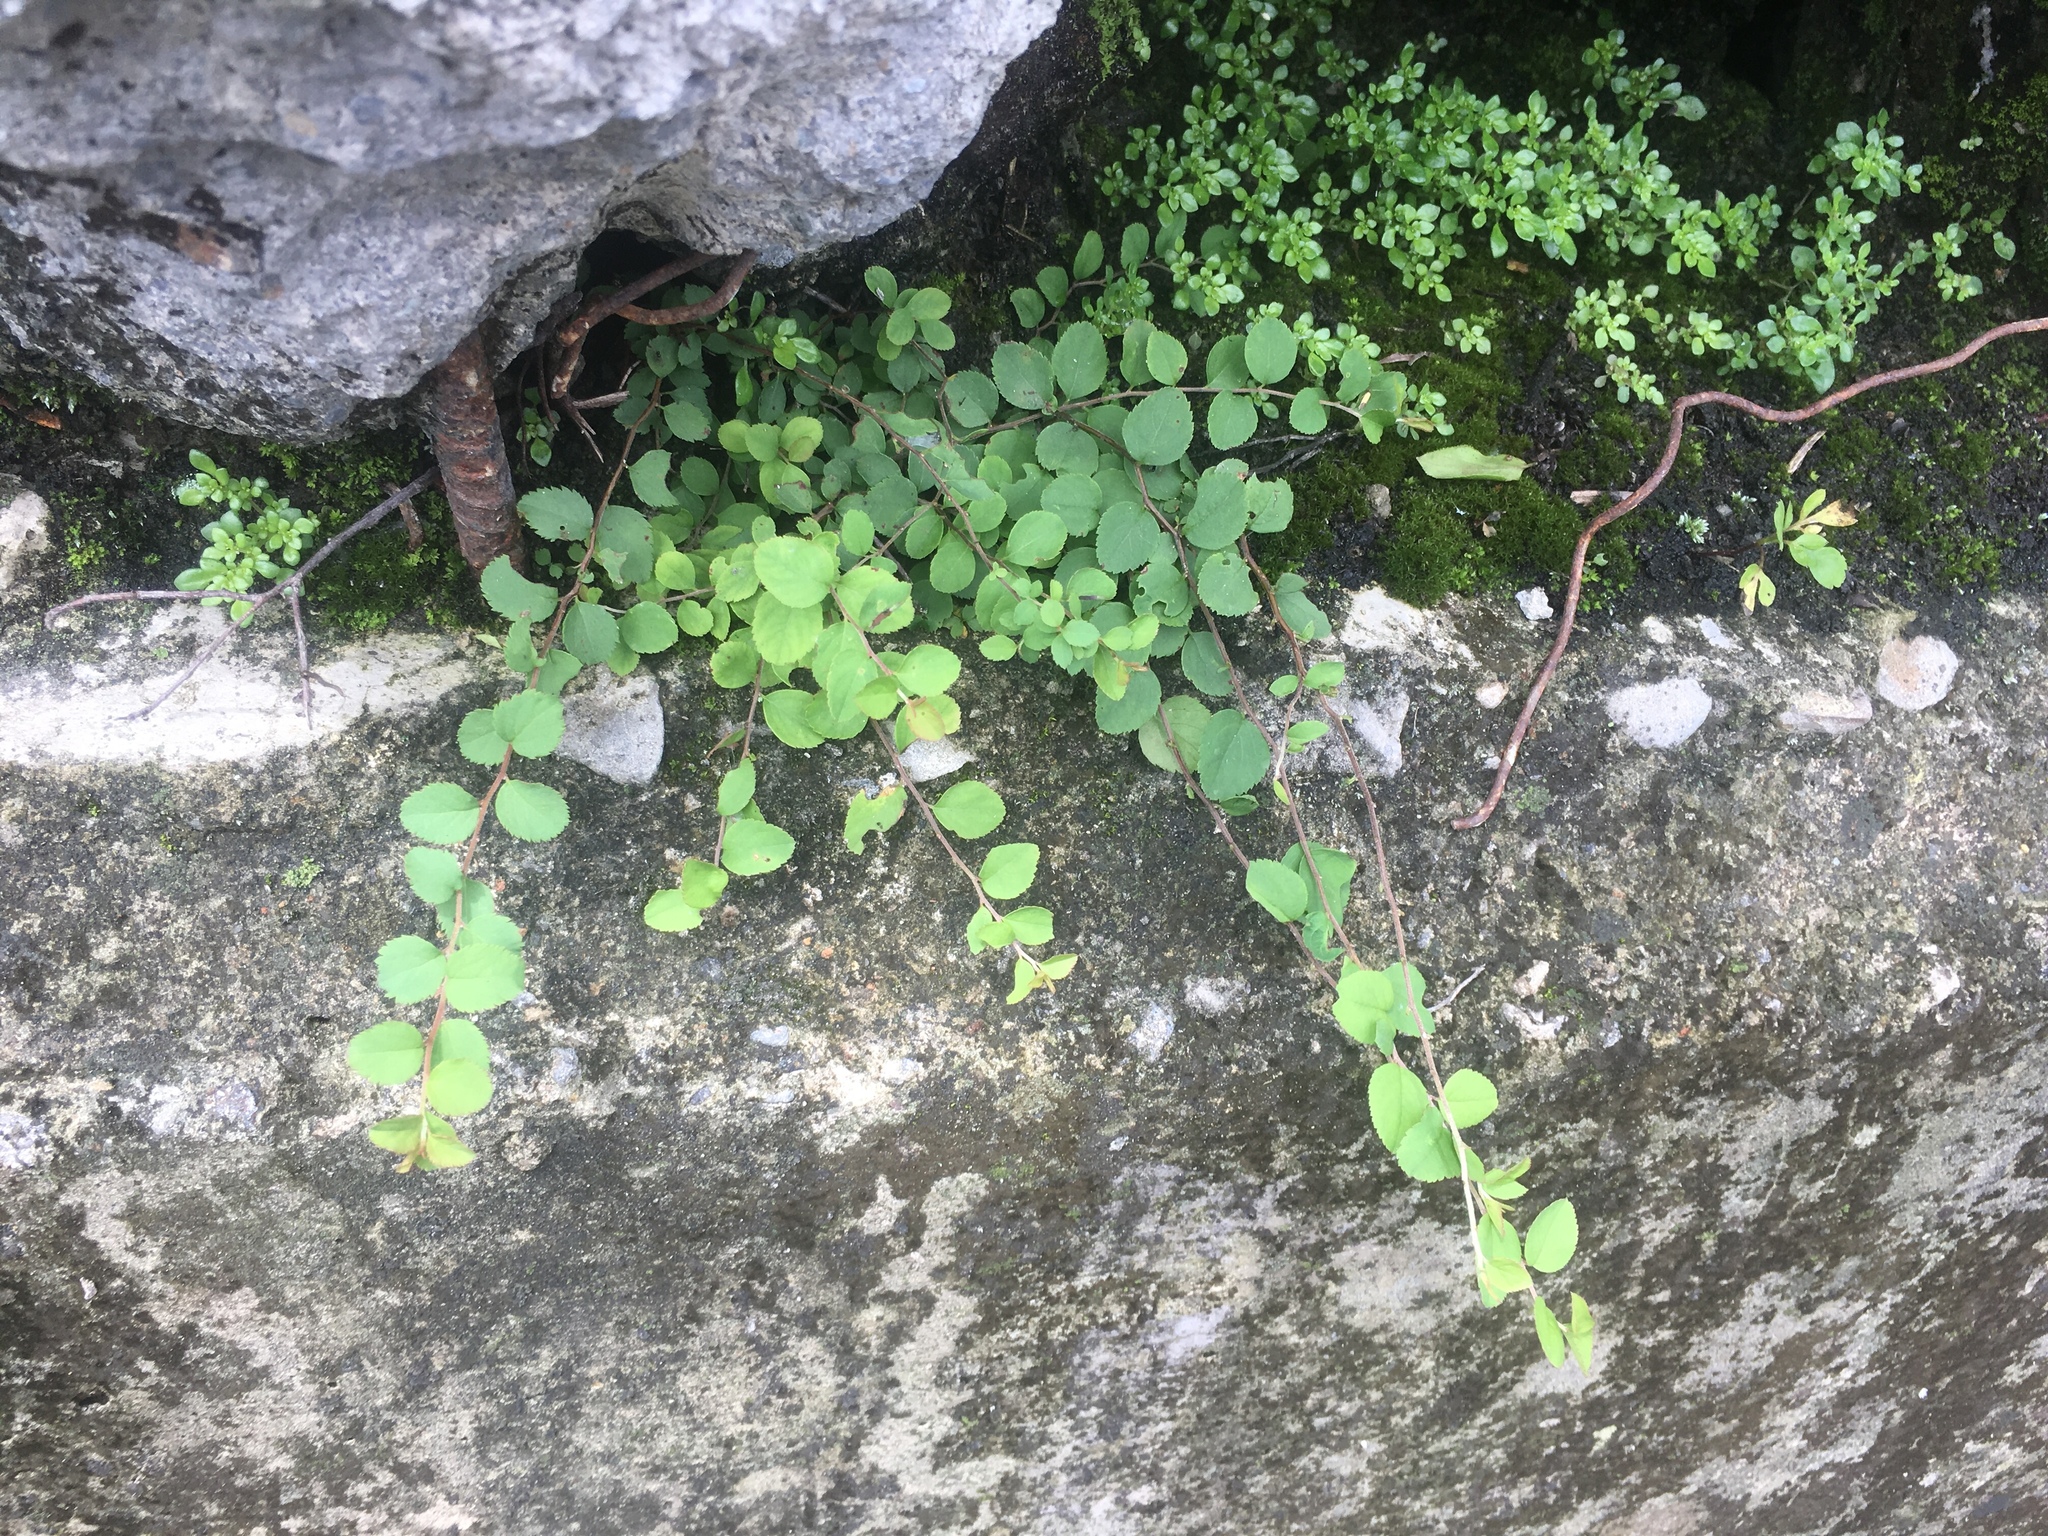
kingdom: Plantae
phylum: Tracheophyta
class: Magnoliopsida
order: Rosales
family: Rosaceae
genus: Spiraea
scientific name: Spiraea prunifolia
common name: Bridal-wreath spiraea
